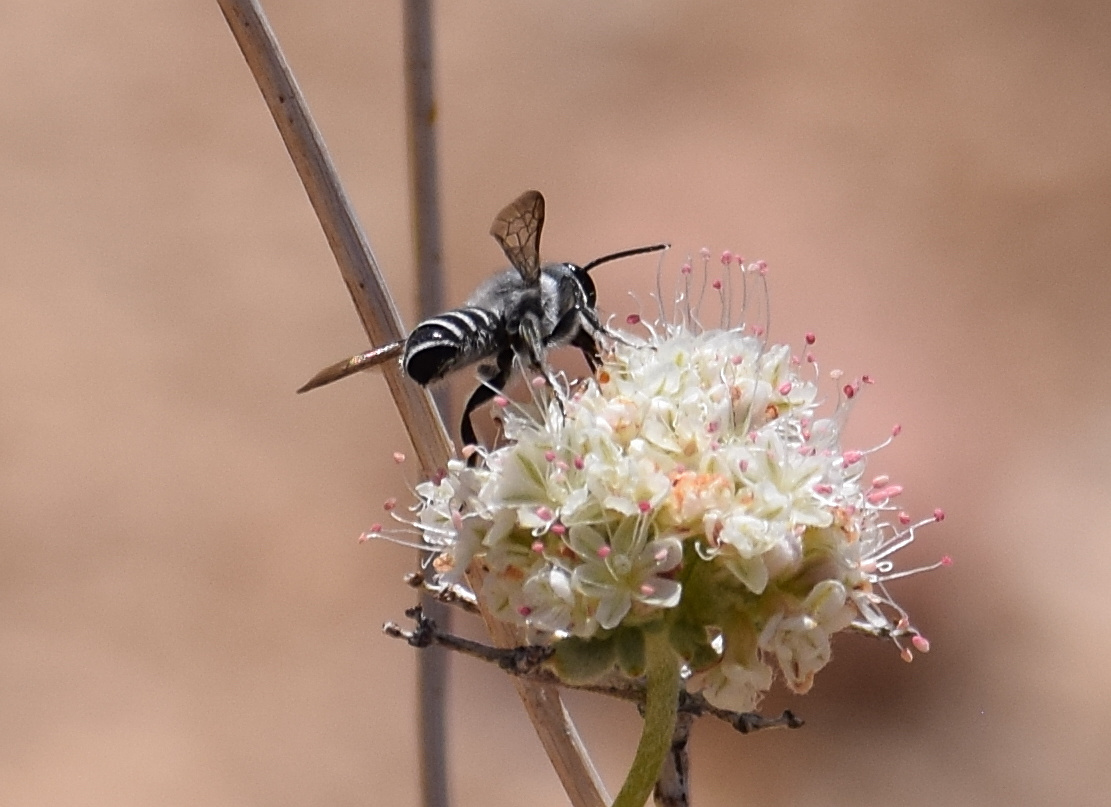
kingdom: Animalia
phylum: Arthropoda
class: Insecta
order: Hymenoptera
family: Megachilidae
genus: Megachile
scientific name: Megachile frugalis
